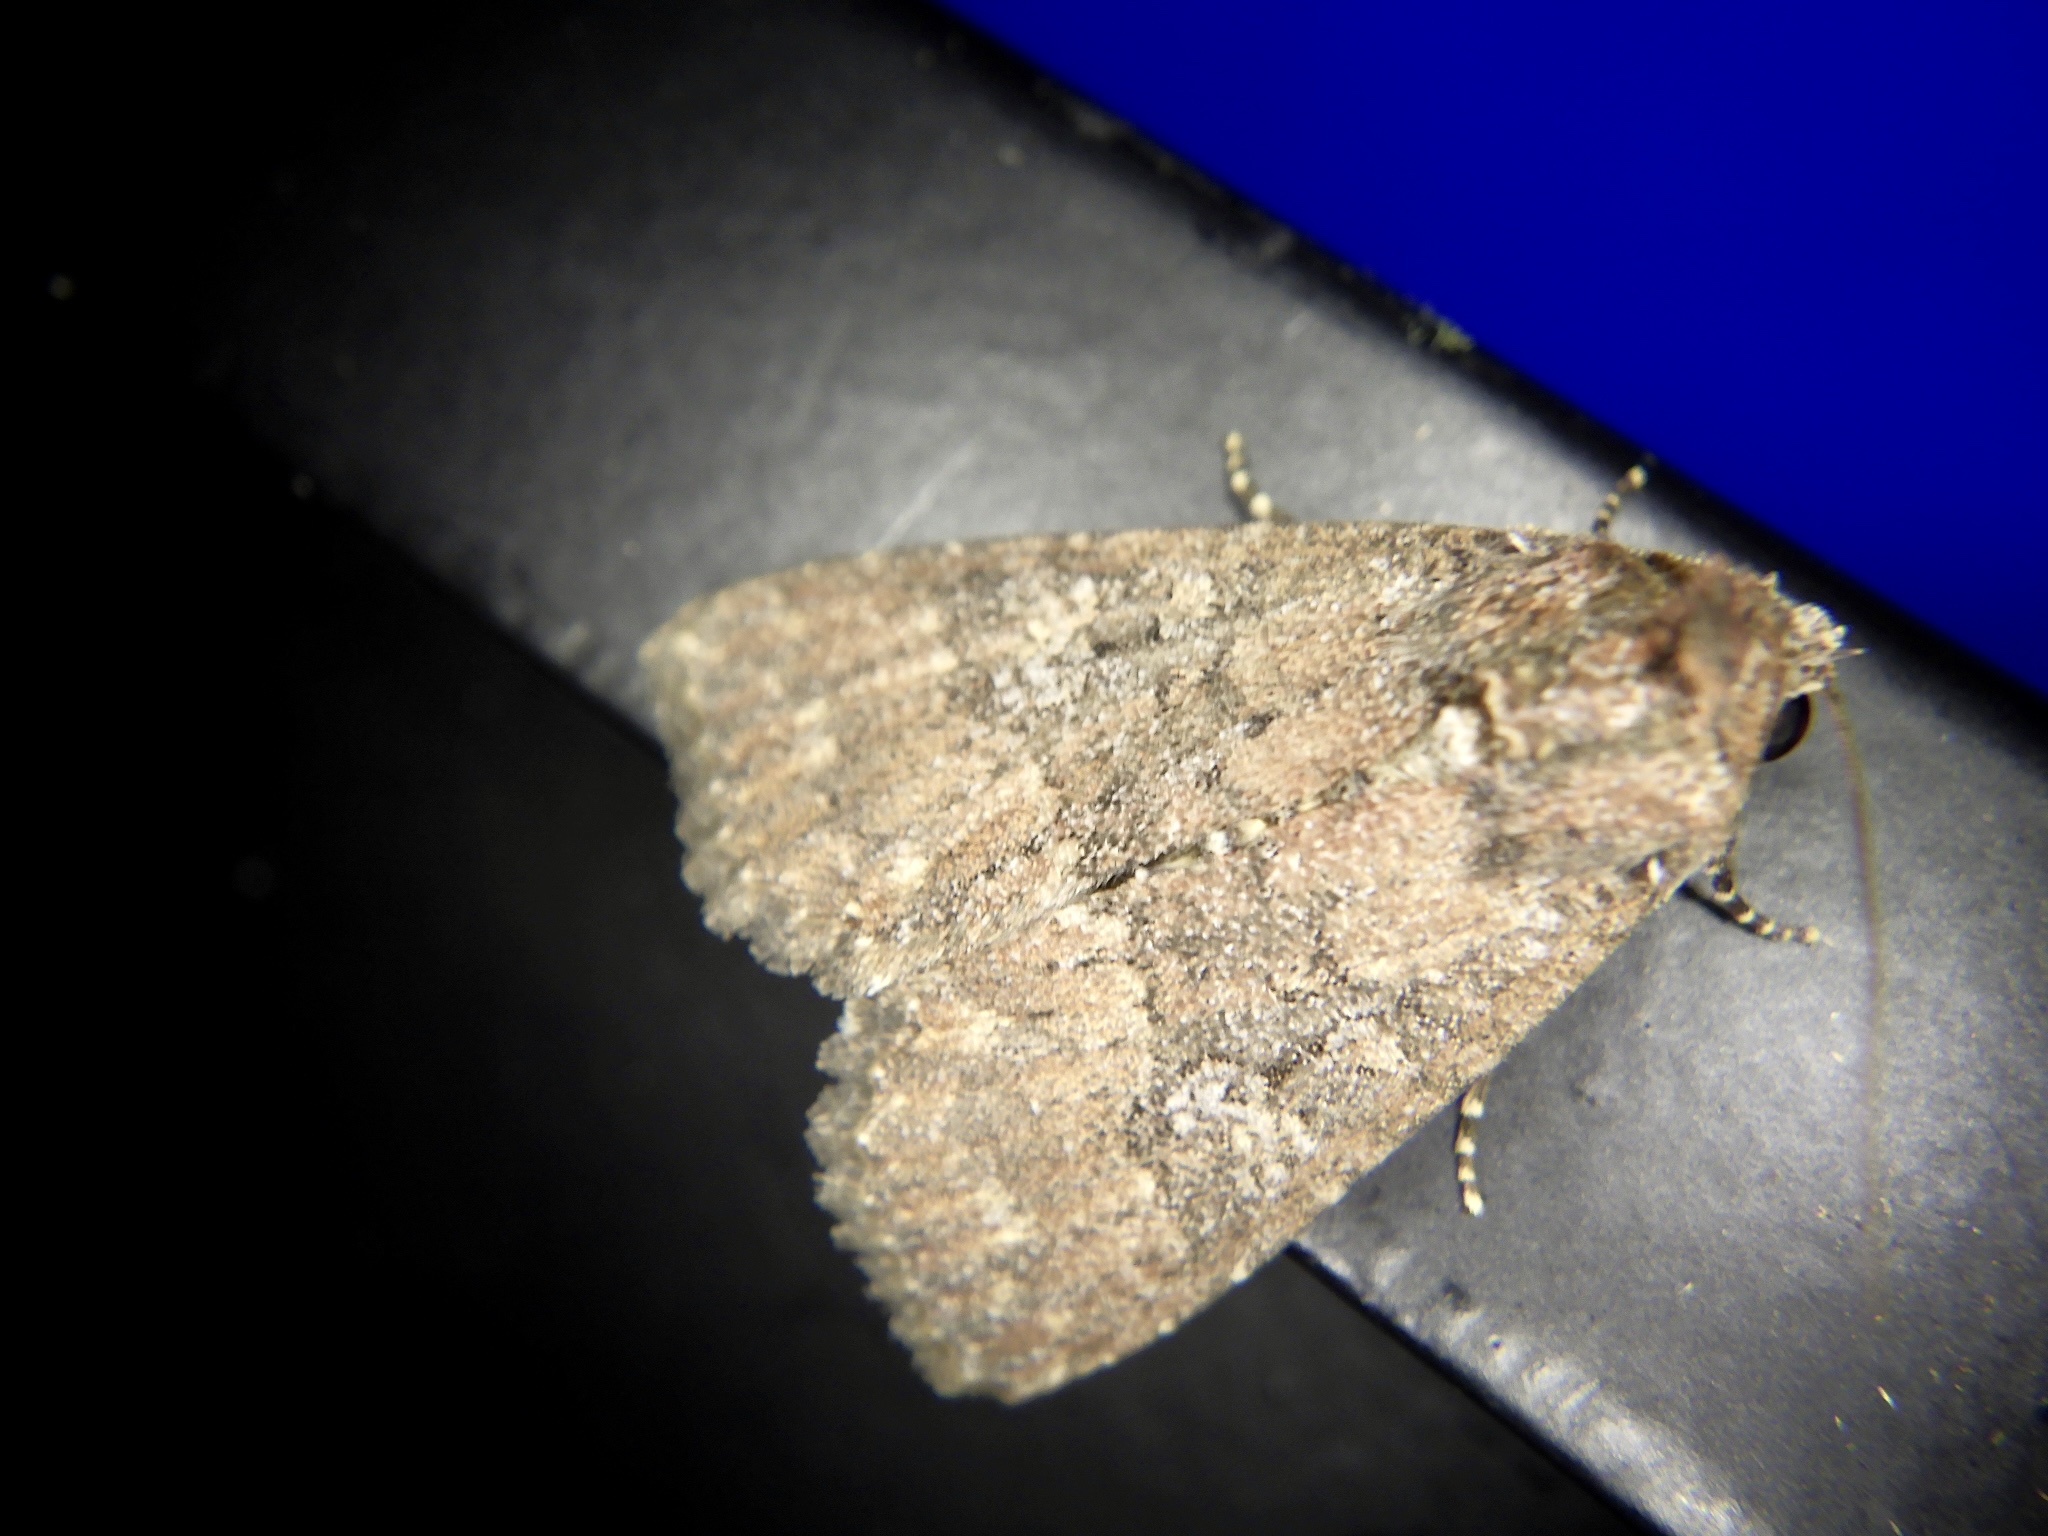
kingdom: Animalia
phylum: Arthropoda
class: Insecta
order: Lepidoptera
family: Noctuidae
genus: Condica
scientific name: Condica illecta
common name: Cutworm
